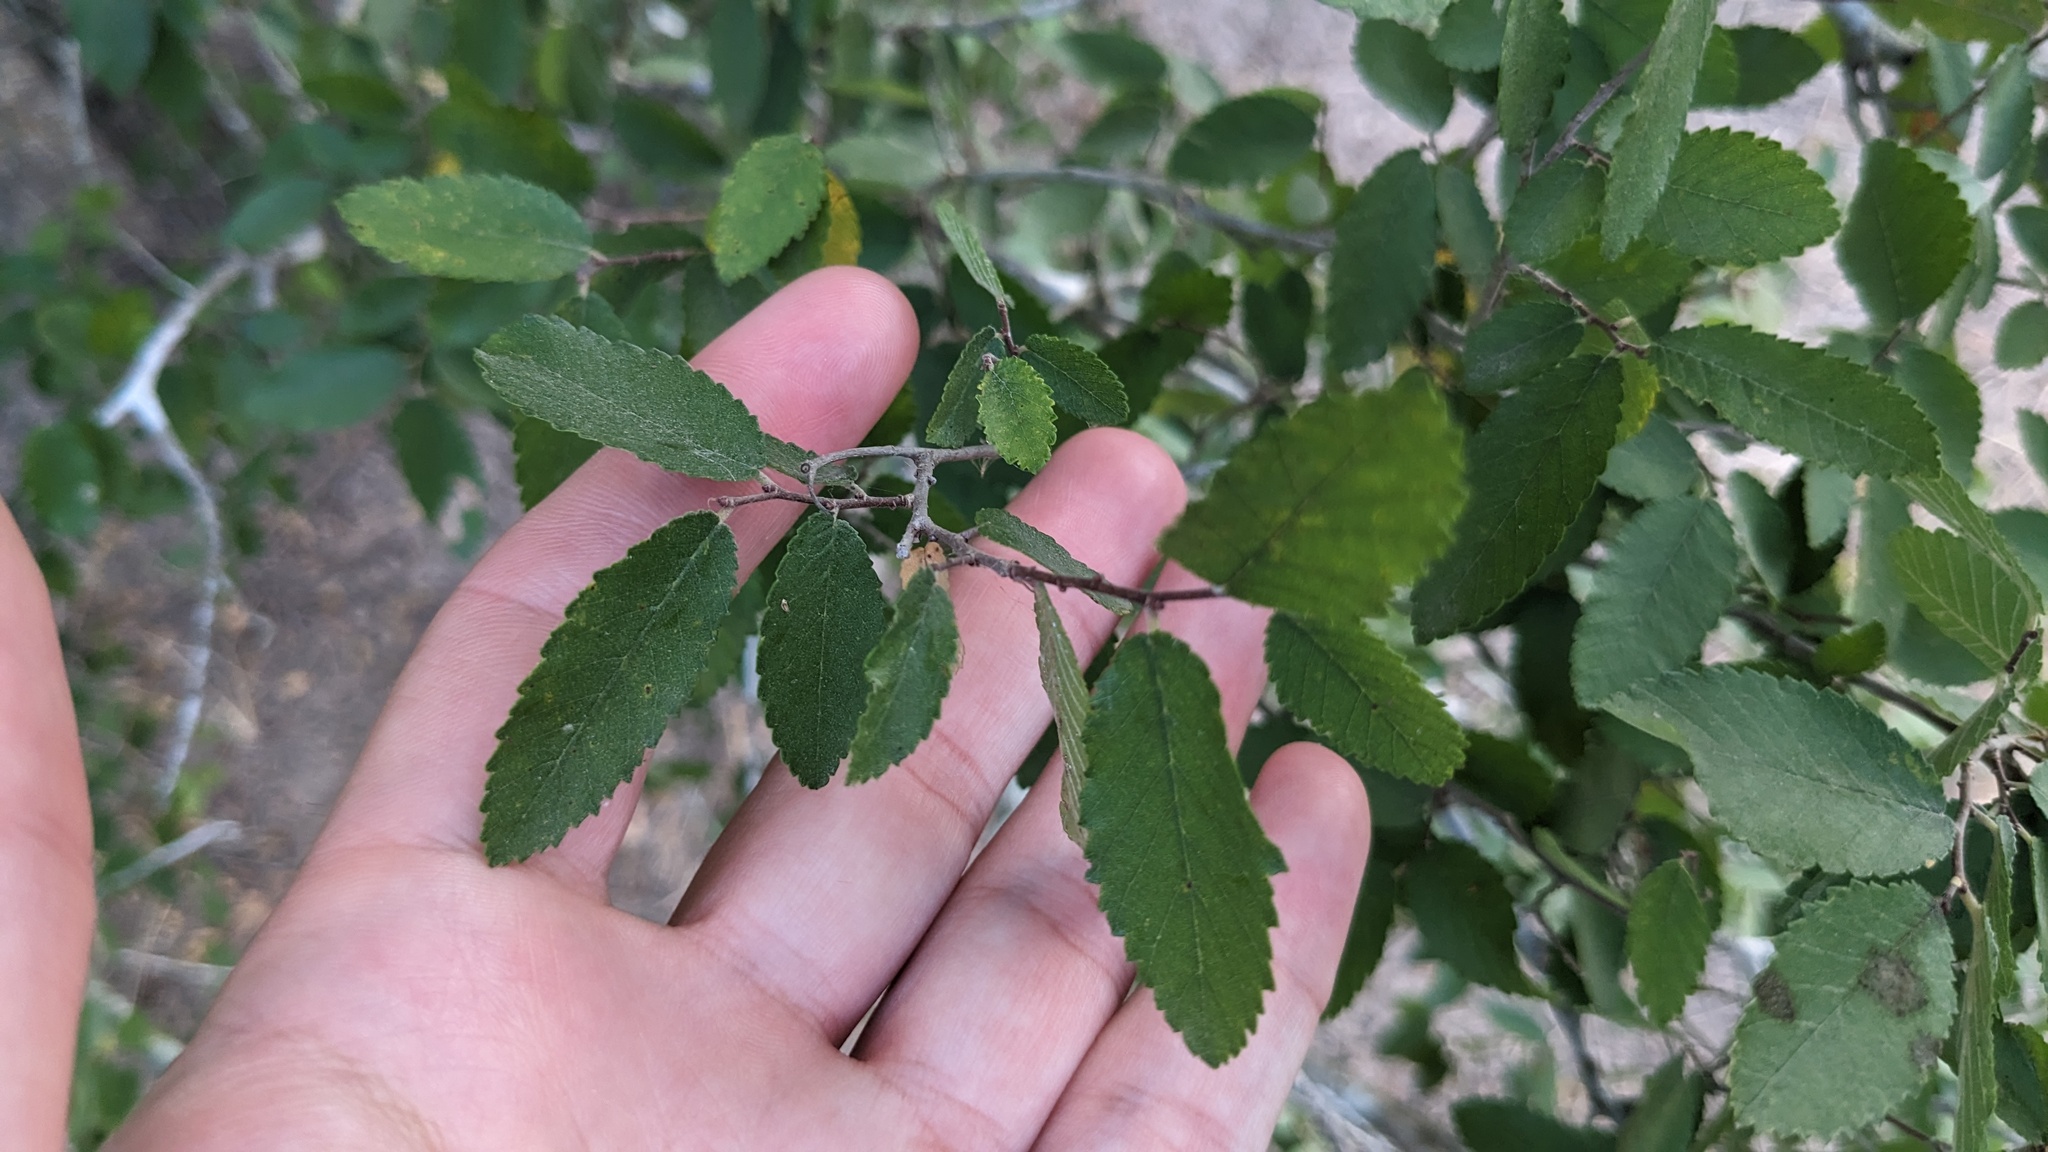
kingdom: Plantae
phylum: Tracheophyta
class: Magnoliopsida
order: Rosales
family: Ulmaceae
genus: Ulmus
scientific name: Ulmus crassifolia
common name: Basket elm
